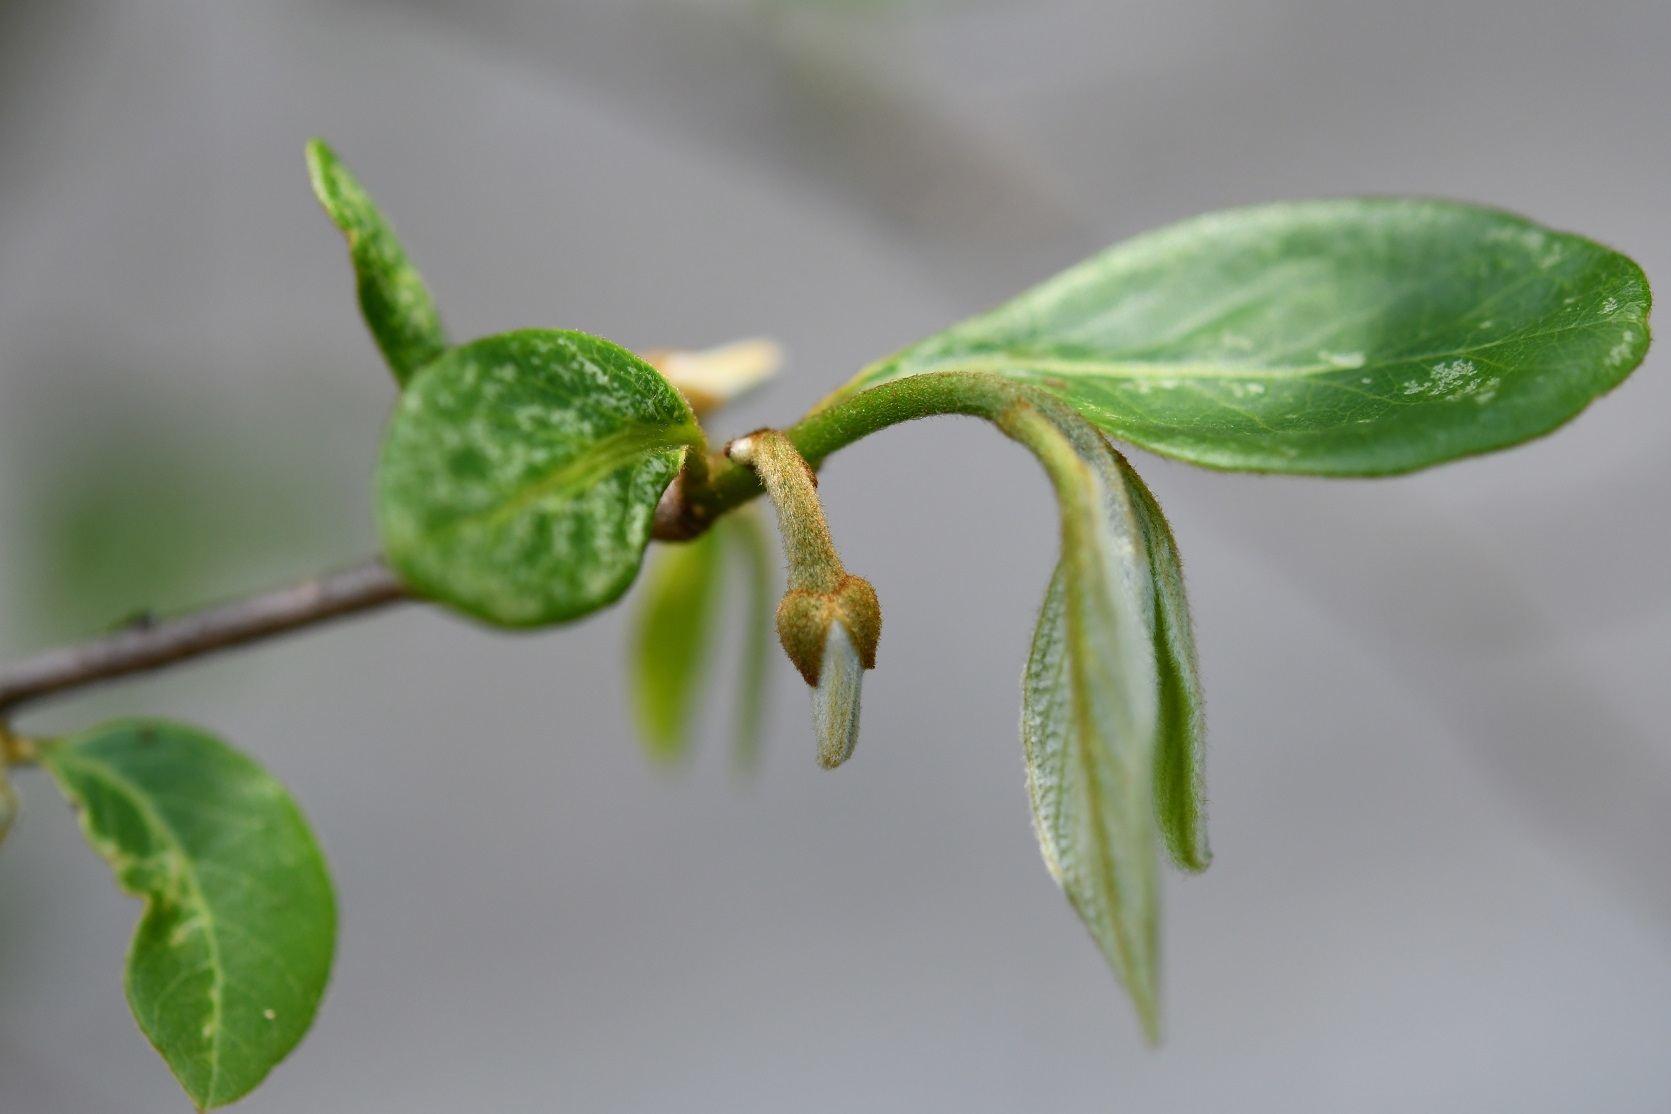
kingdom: Plantae
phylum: Tracheophyta
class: Magnoliopsida
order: Magnoliales
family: Annonaceae
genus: Annona
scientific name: Annona cherimola
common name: Cherimoya
